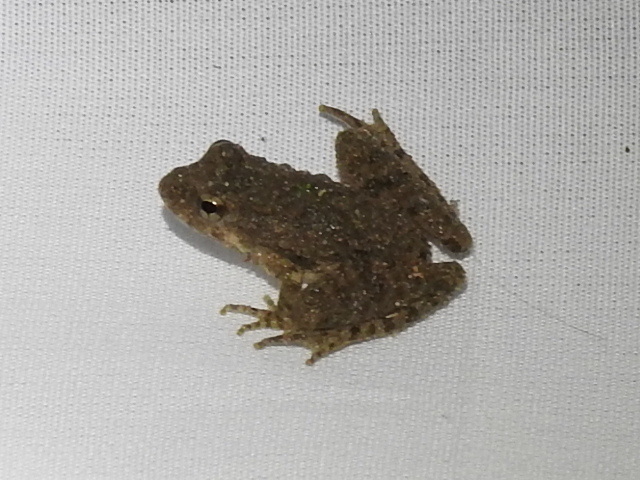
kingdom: Animalia
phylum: Chordata
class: Amphibia
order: Anura
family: Hylidae
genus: Acris
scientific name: Acris blanchardi
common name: Blanchard's cricket frog
